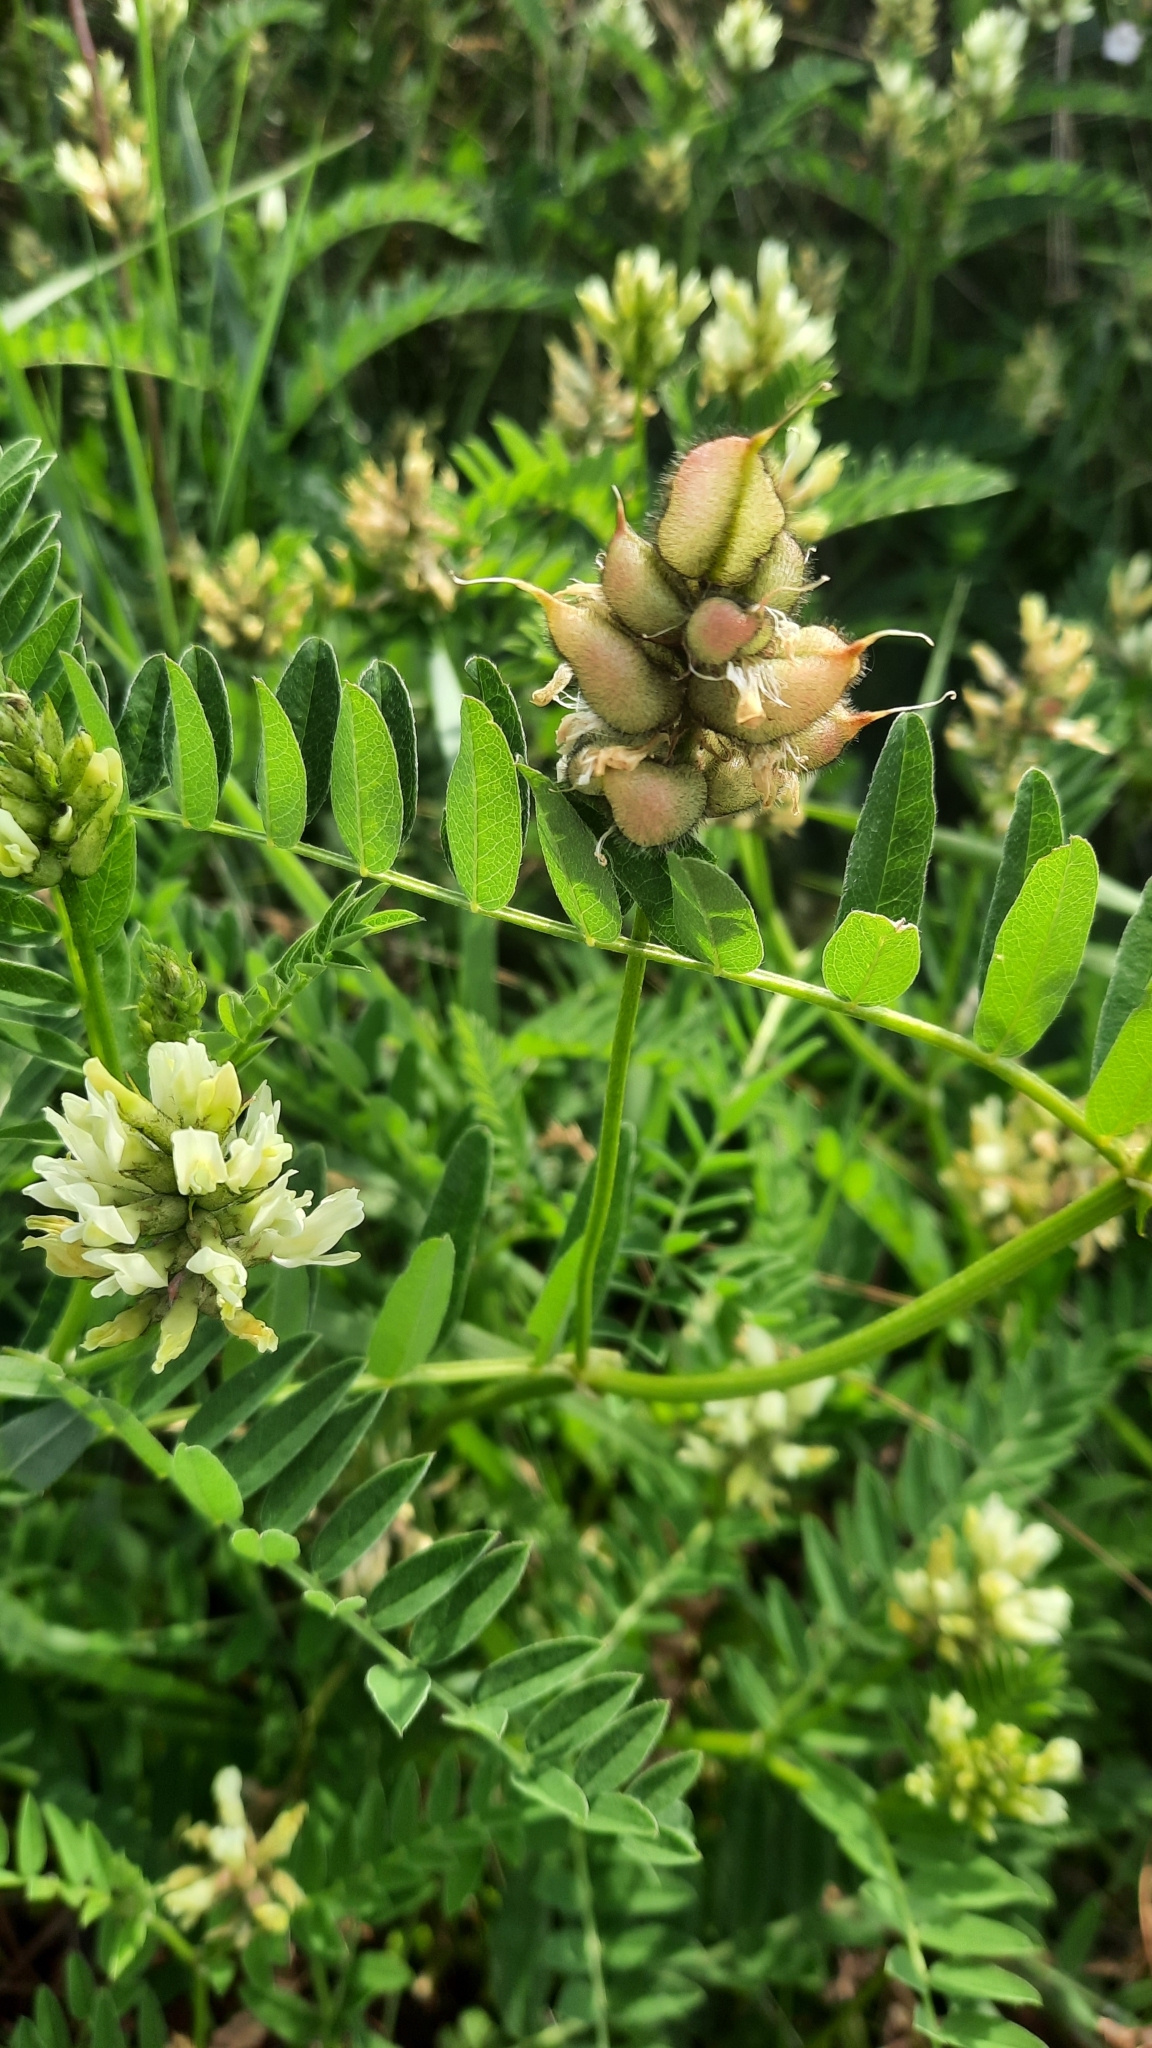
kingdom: Plantae
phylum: Tracheophyta
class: Magnoliopsida
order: Fabales
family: Fabaceae
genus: Astragalus
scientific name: Astragalus cicer
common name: Chick-pea milk-vetch
